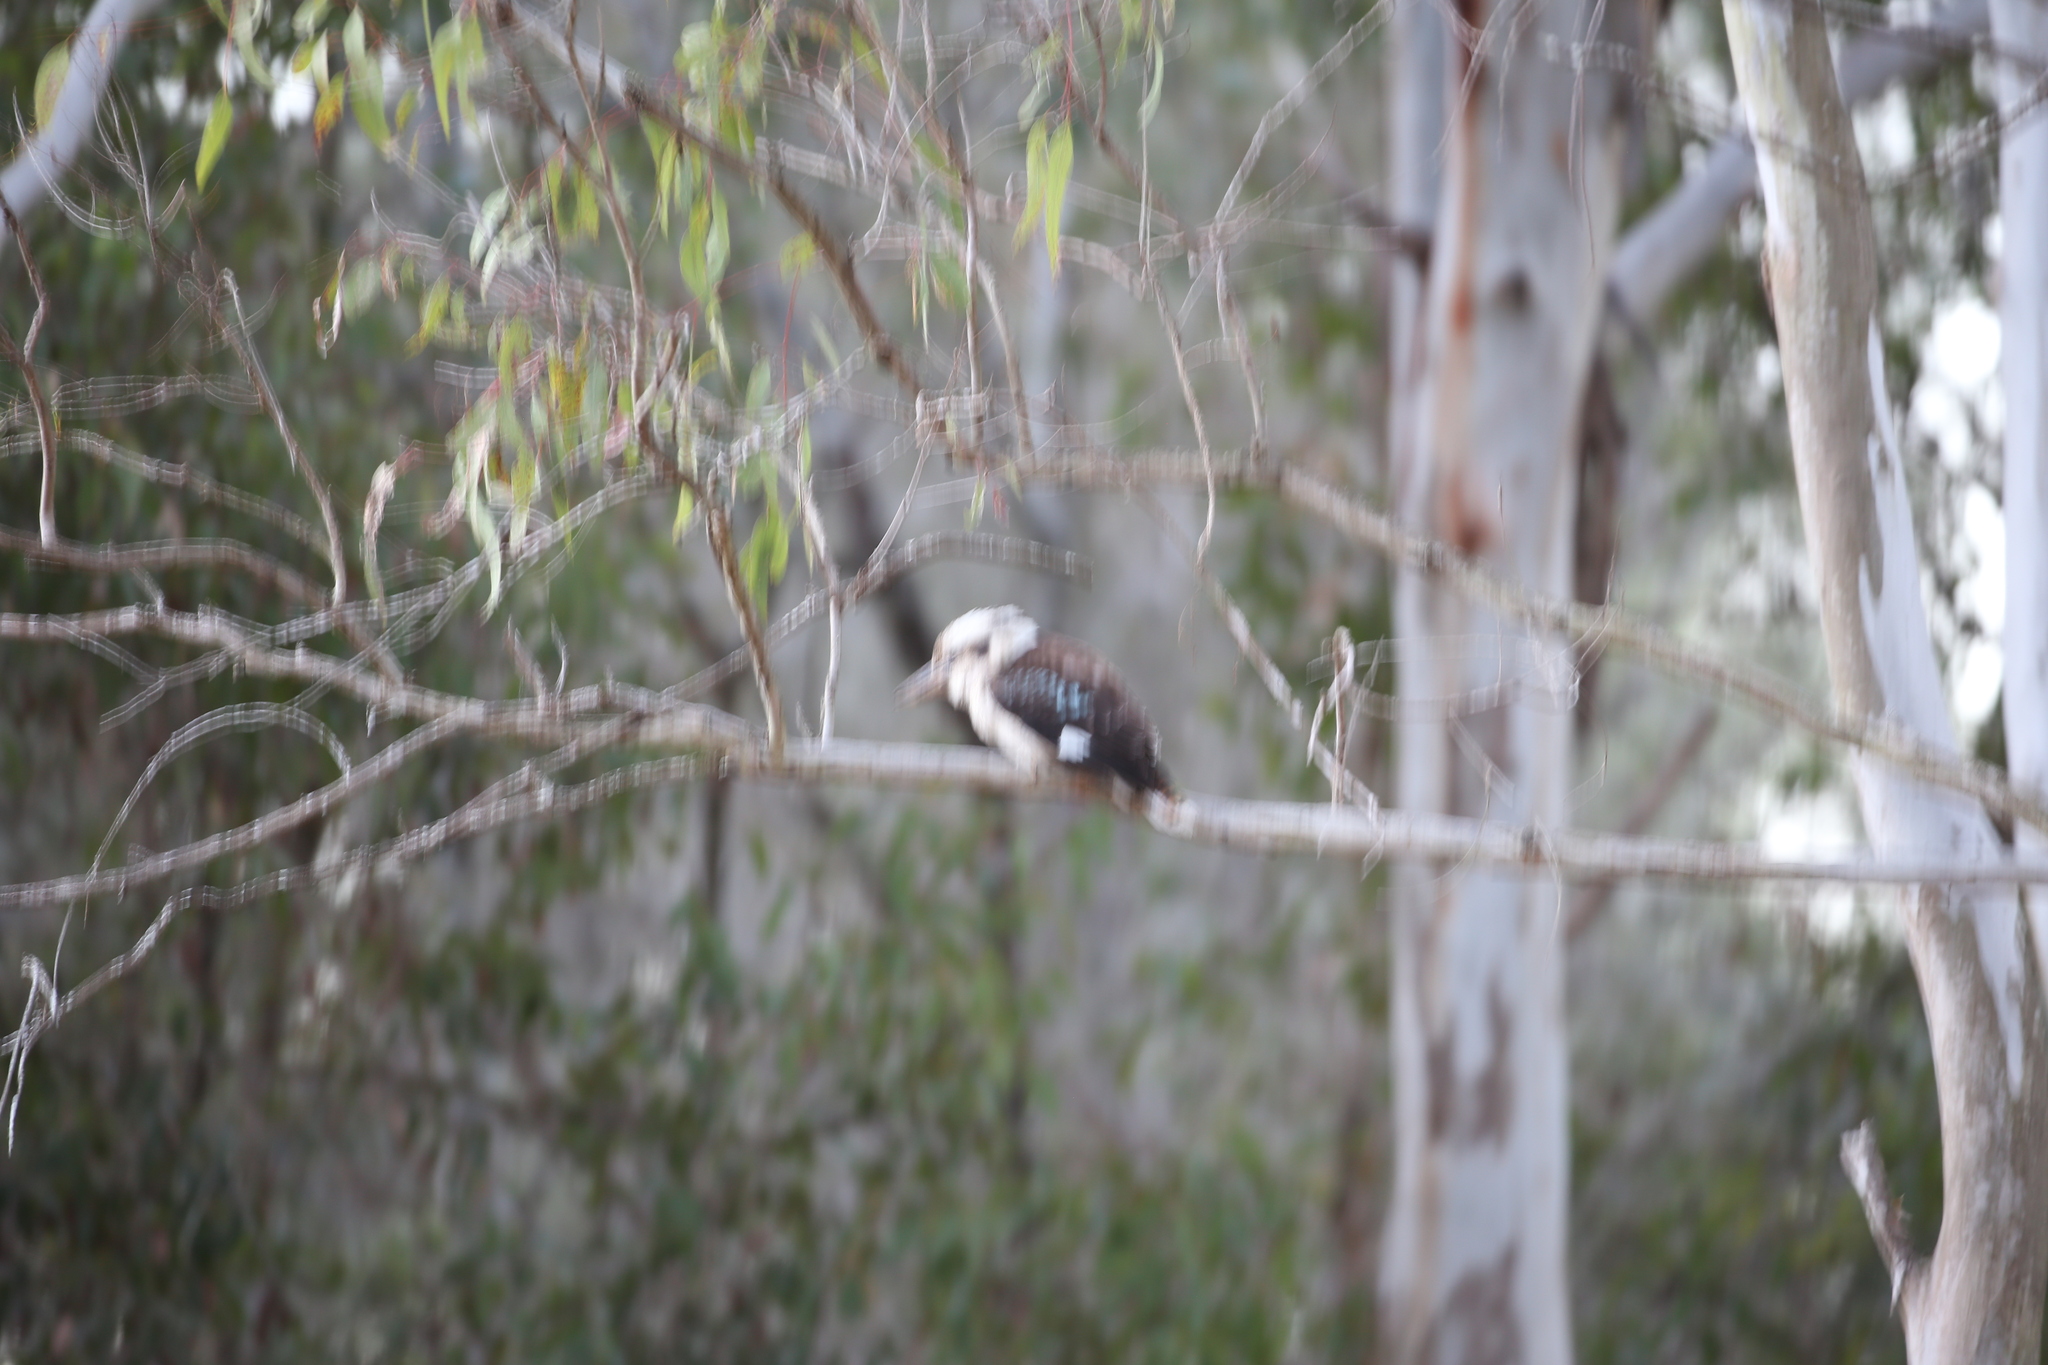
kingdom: Animalia
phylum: Chordata
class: Aves
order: Coraciiformes
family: Alcedinidae
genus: Dacelo
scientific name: Dacelo novaeguineae
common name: Laughing kookaburra
